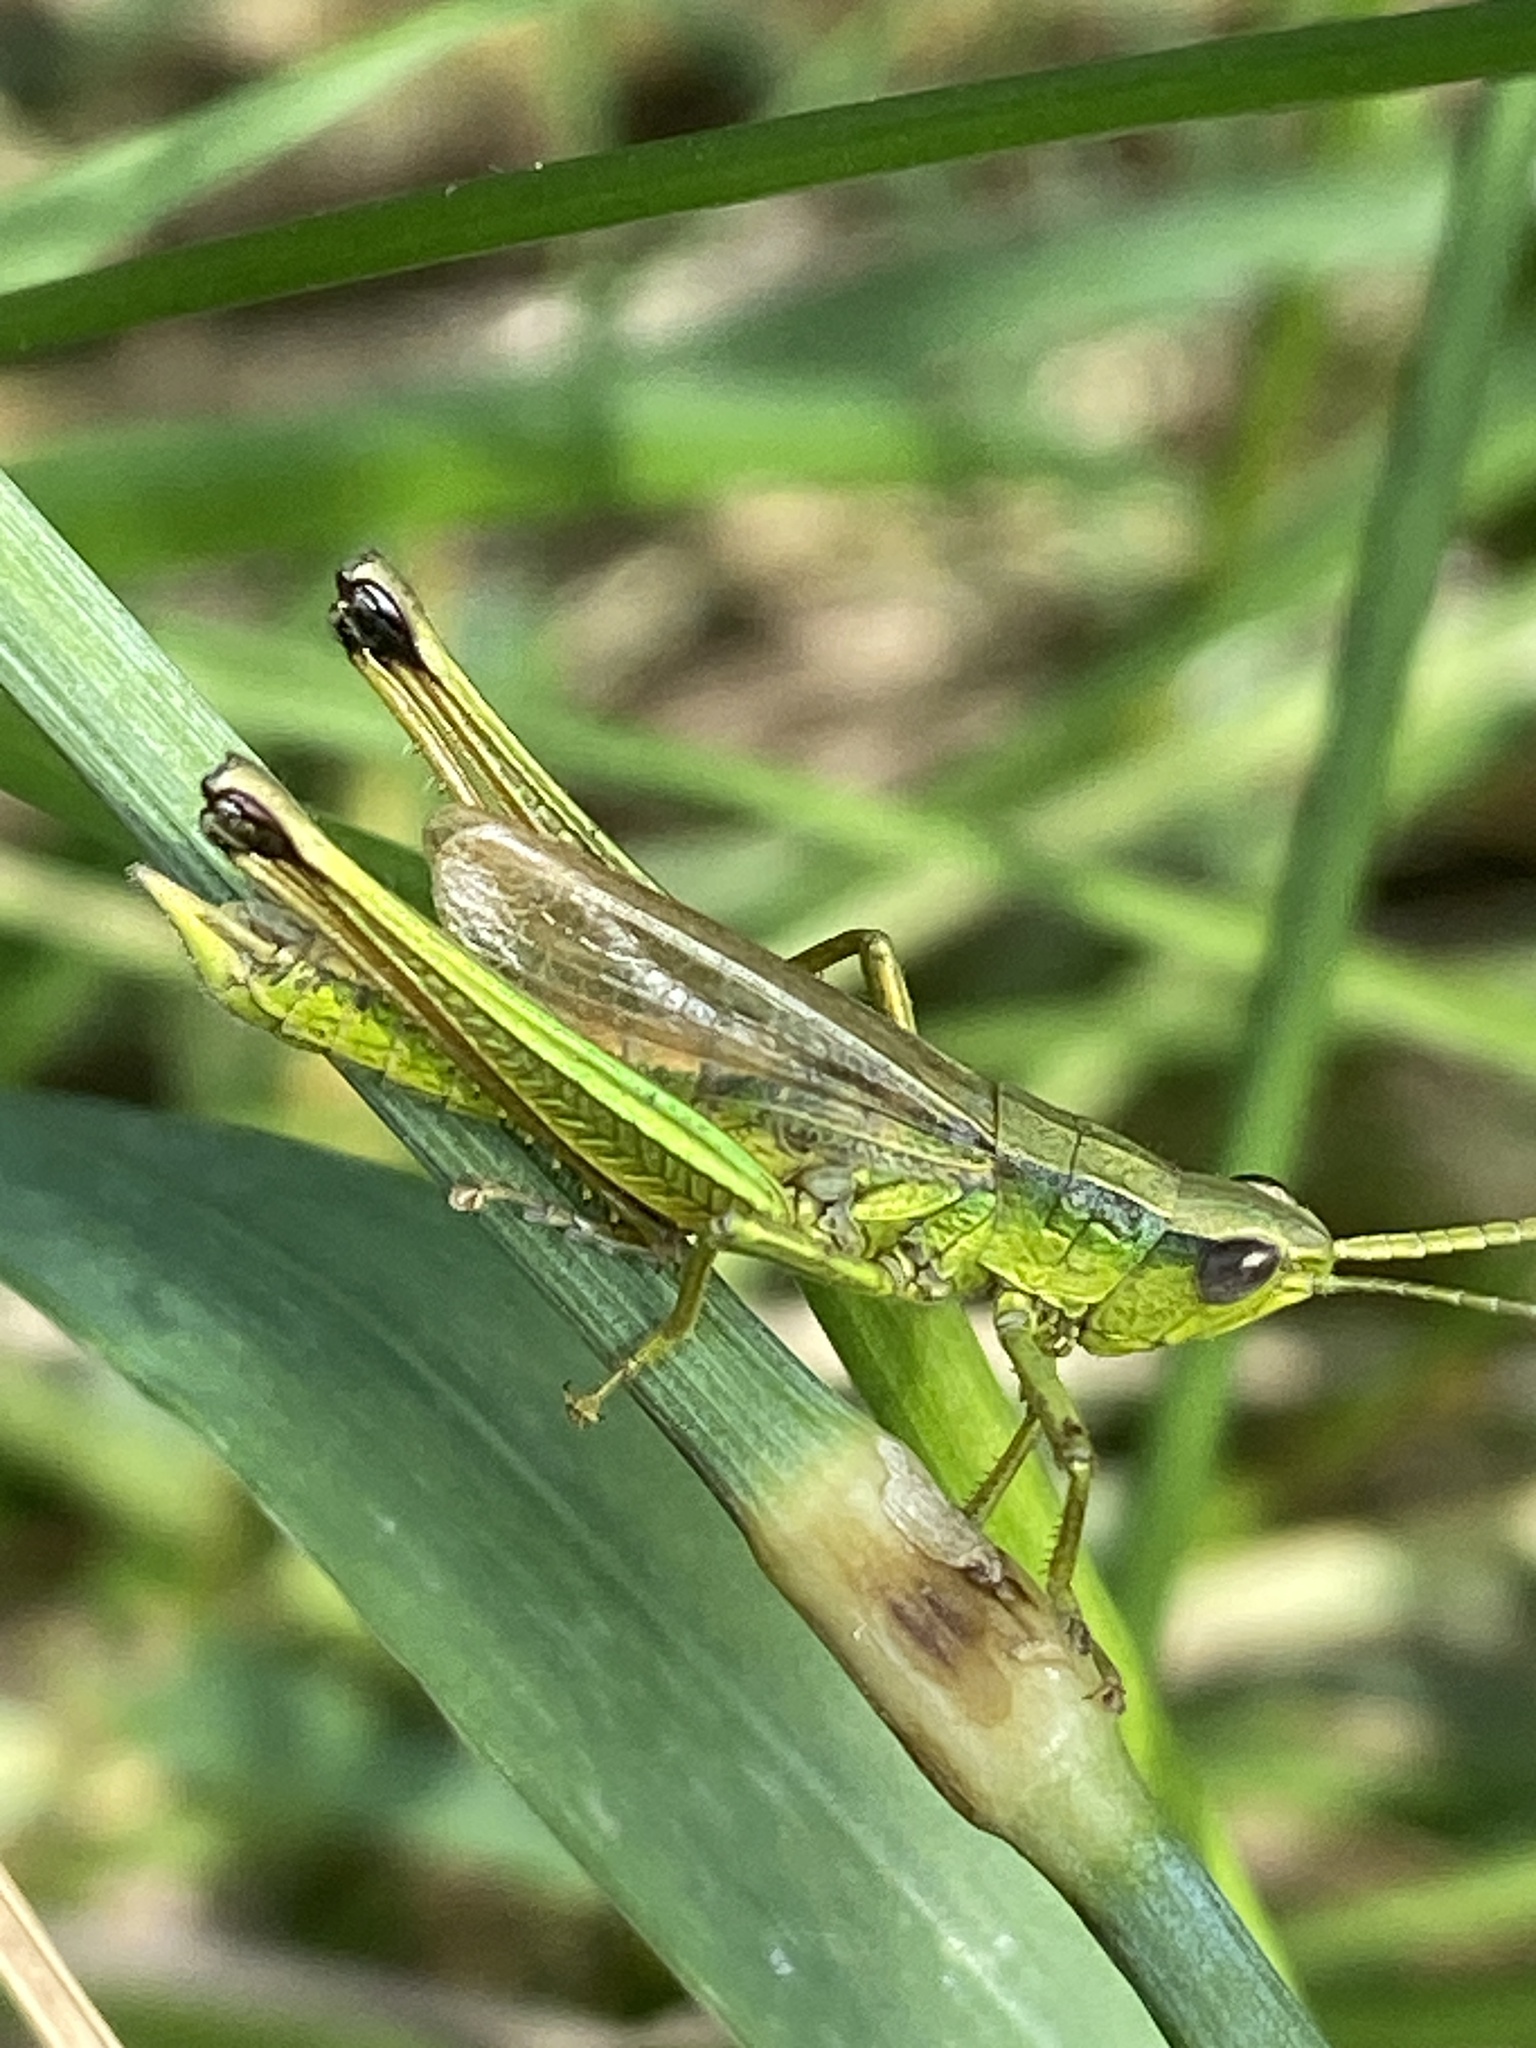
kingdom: Animalia
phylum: Arthropoda
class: Insecta
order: Orthoptera
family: Acrididae
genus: Chrysochraon
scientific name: Chrysochraon dispar
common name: Large gold grasshopper
